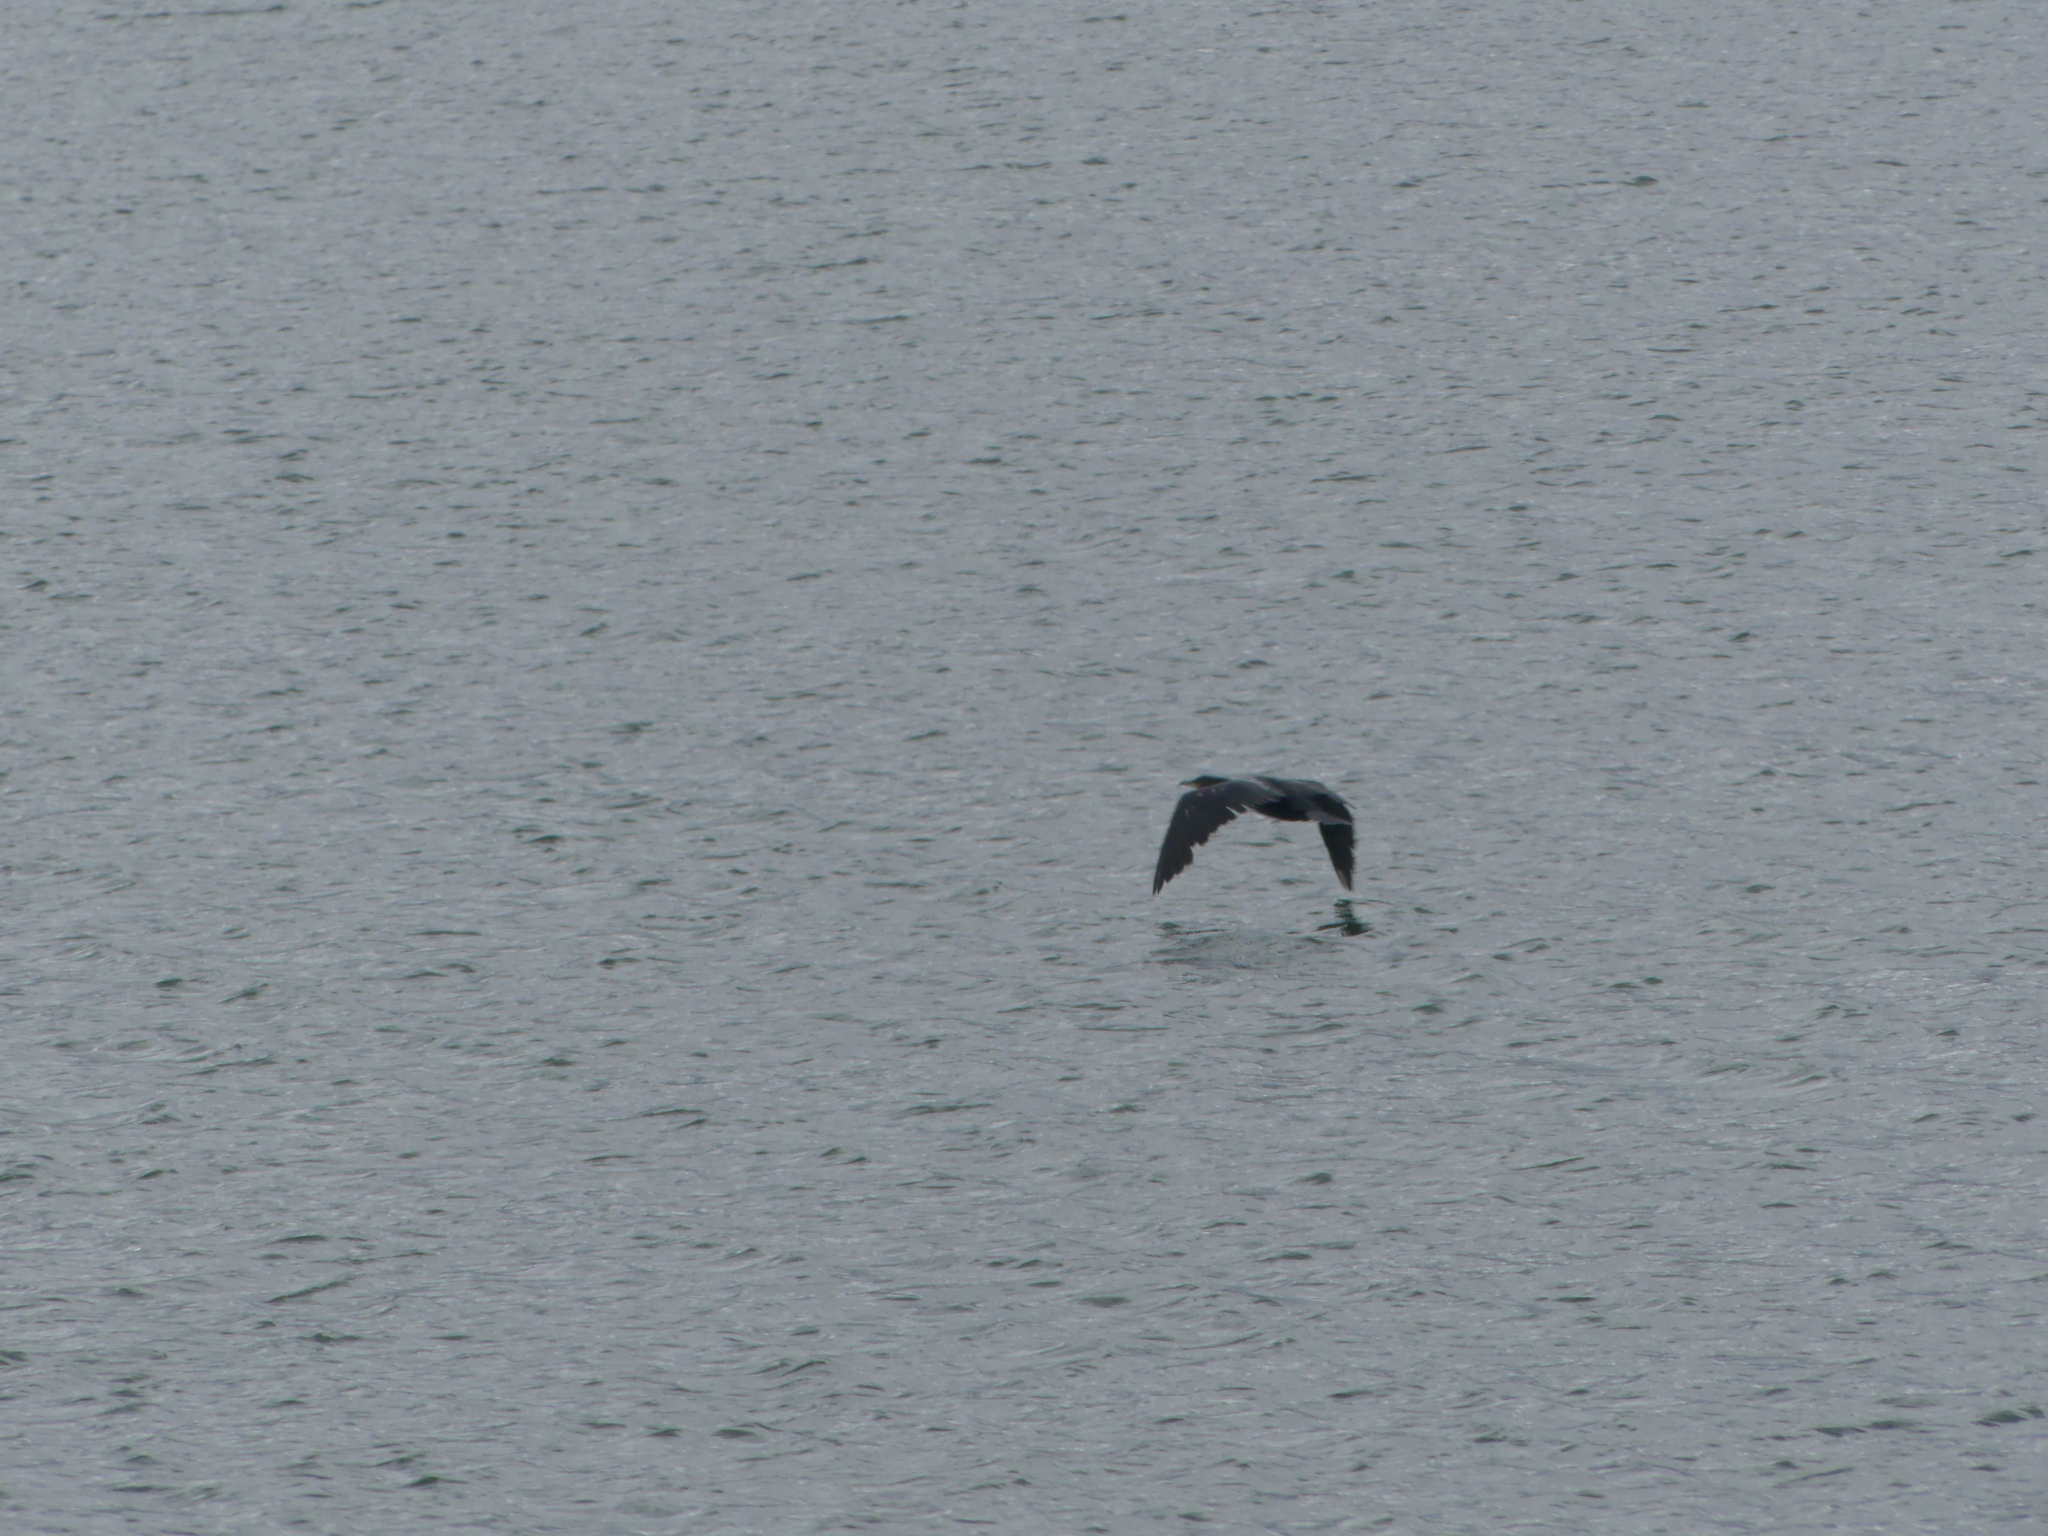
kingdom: Animalia
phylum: Chordata
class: Aves
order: Suliformes
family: Phalacrocoracidae
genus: Phalacrocorax
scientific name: Phalacrocorax carbo
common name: Great cormorant
